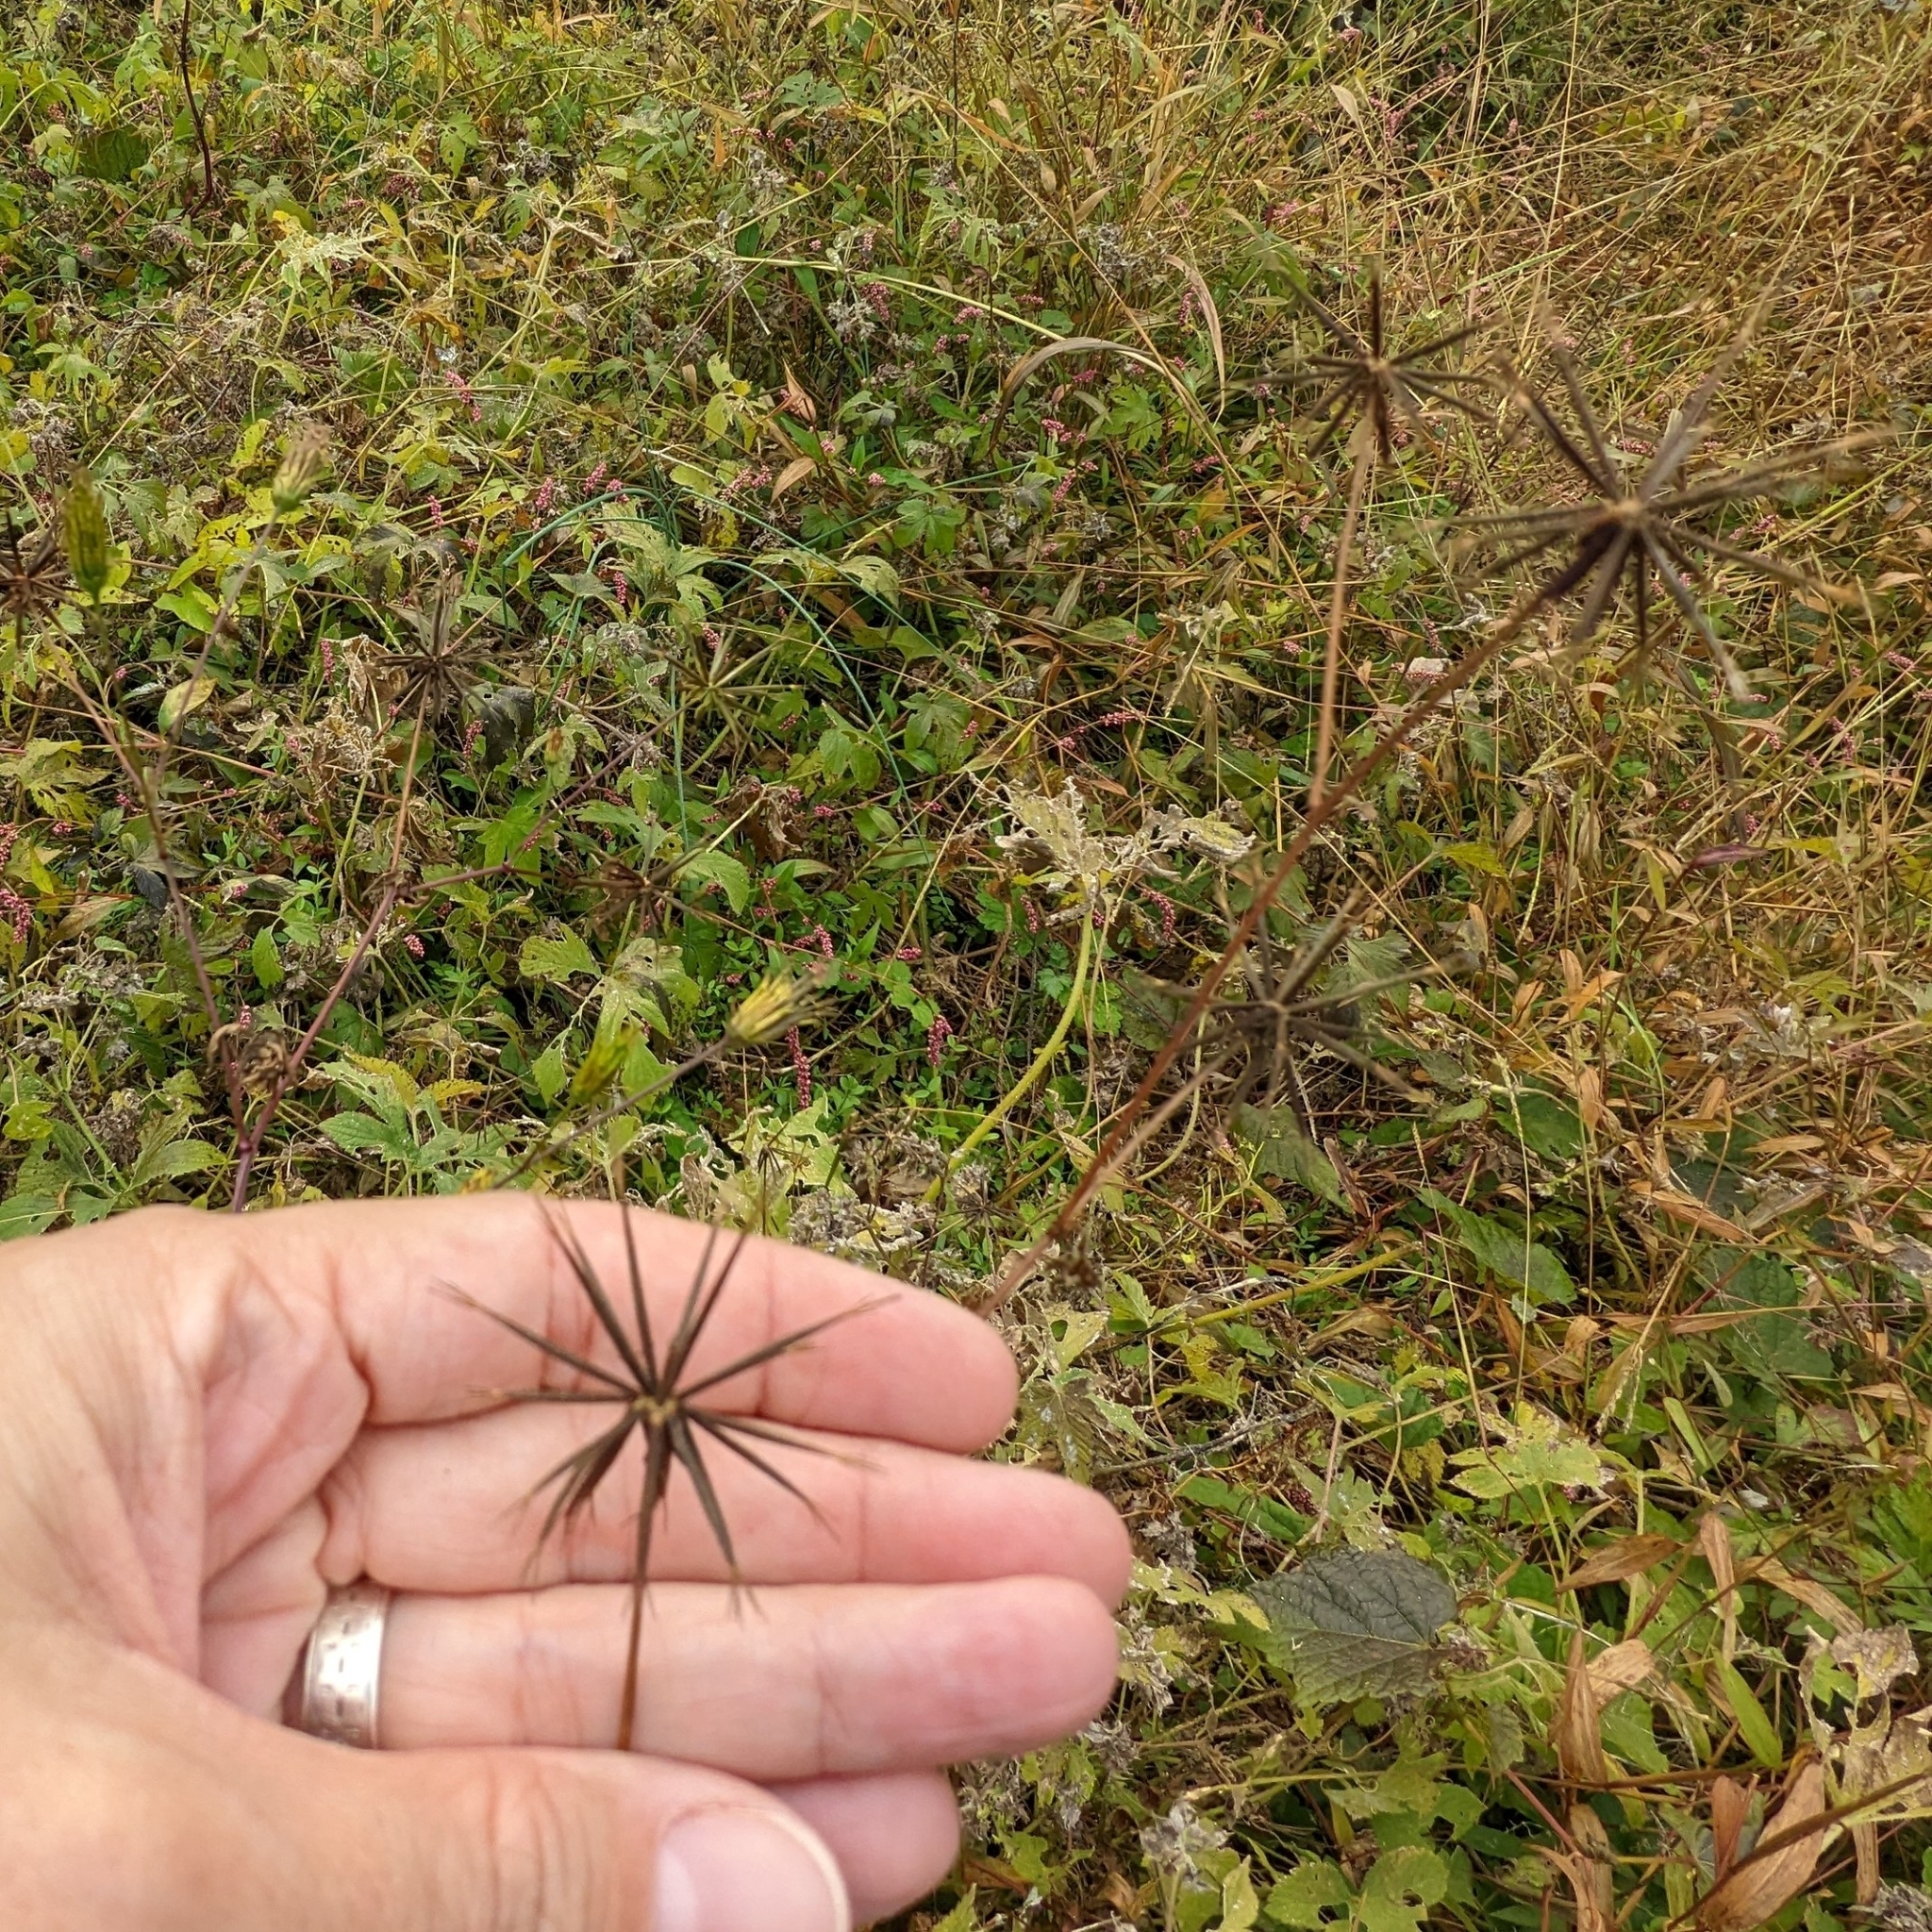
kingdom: Plantae
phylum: Tracheophyta
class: Magnoliopsida
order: Asterales
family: Asteraceae
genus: Bidens
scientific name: Bidens bipinnata
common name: Spanish-needles
